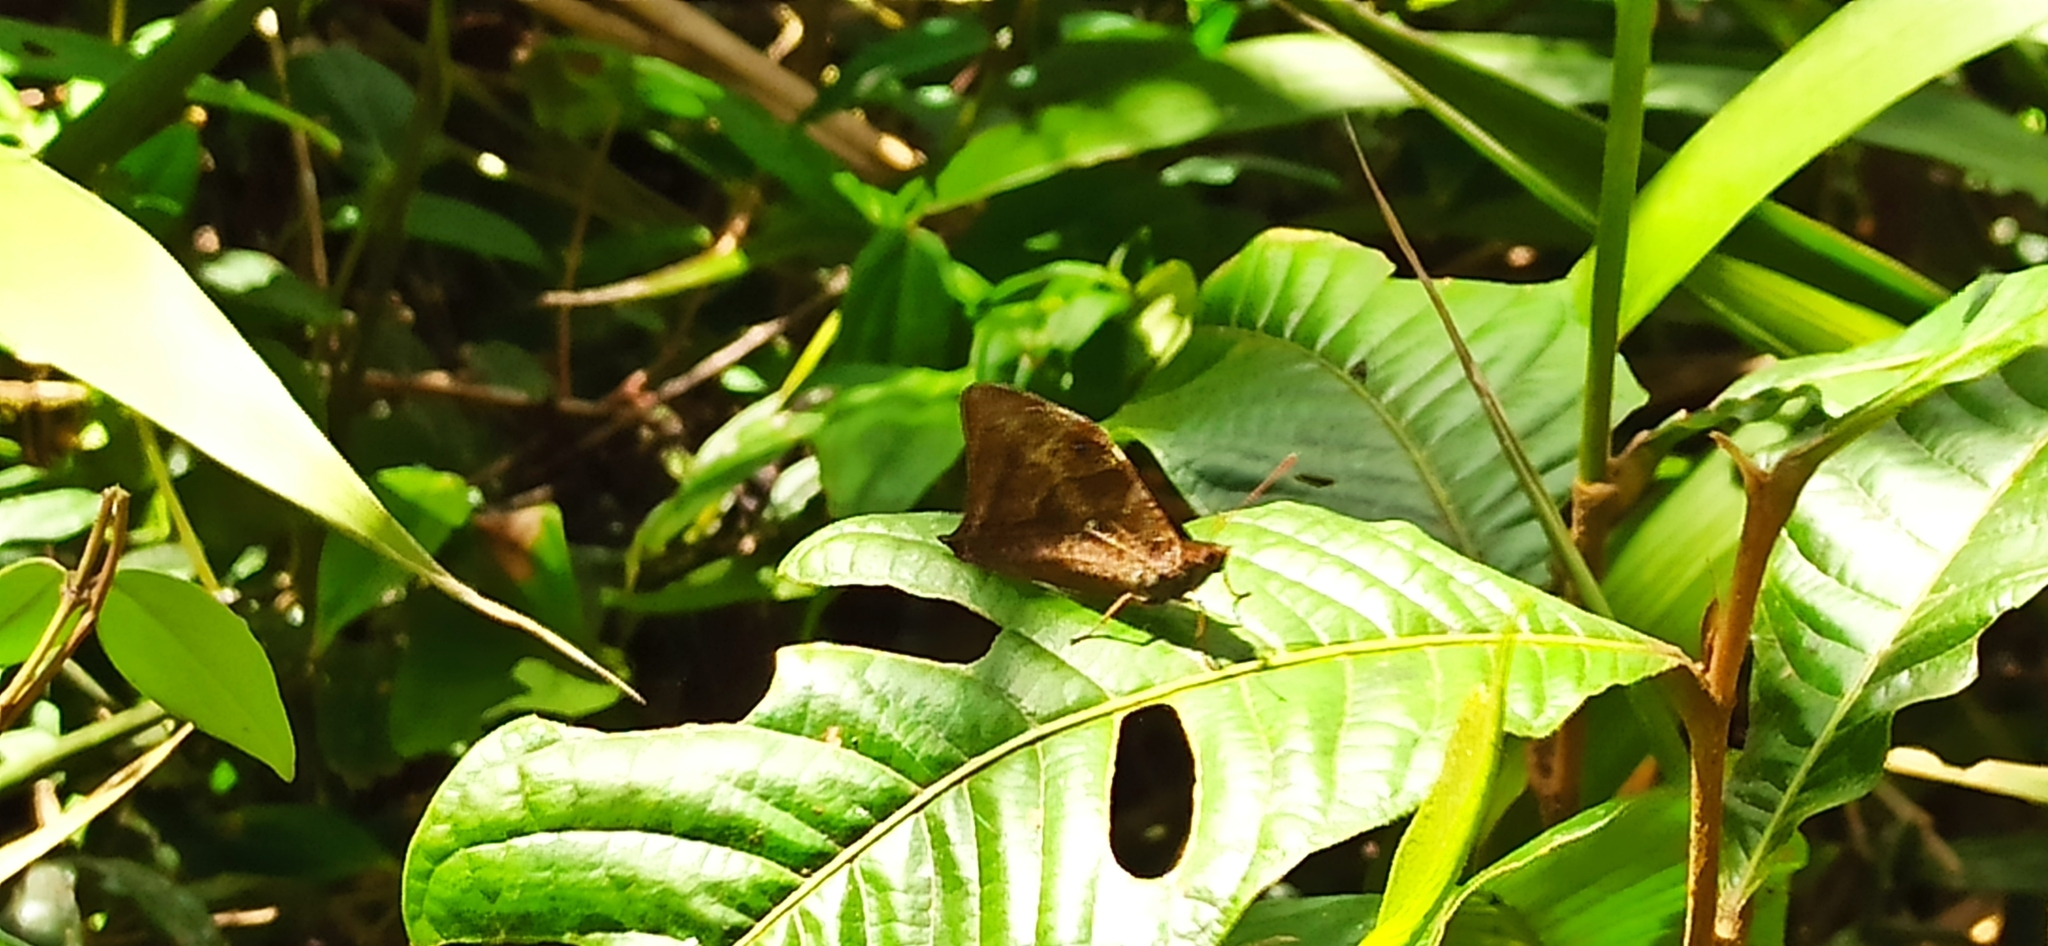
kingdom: Animalia
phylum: Arthropoda
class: Insecta
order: Lepidoptera
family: Nymphalidae
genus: Corades
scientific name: Corades medeba
